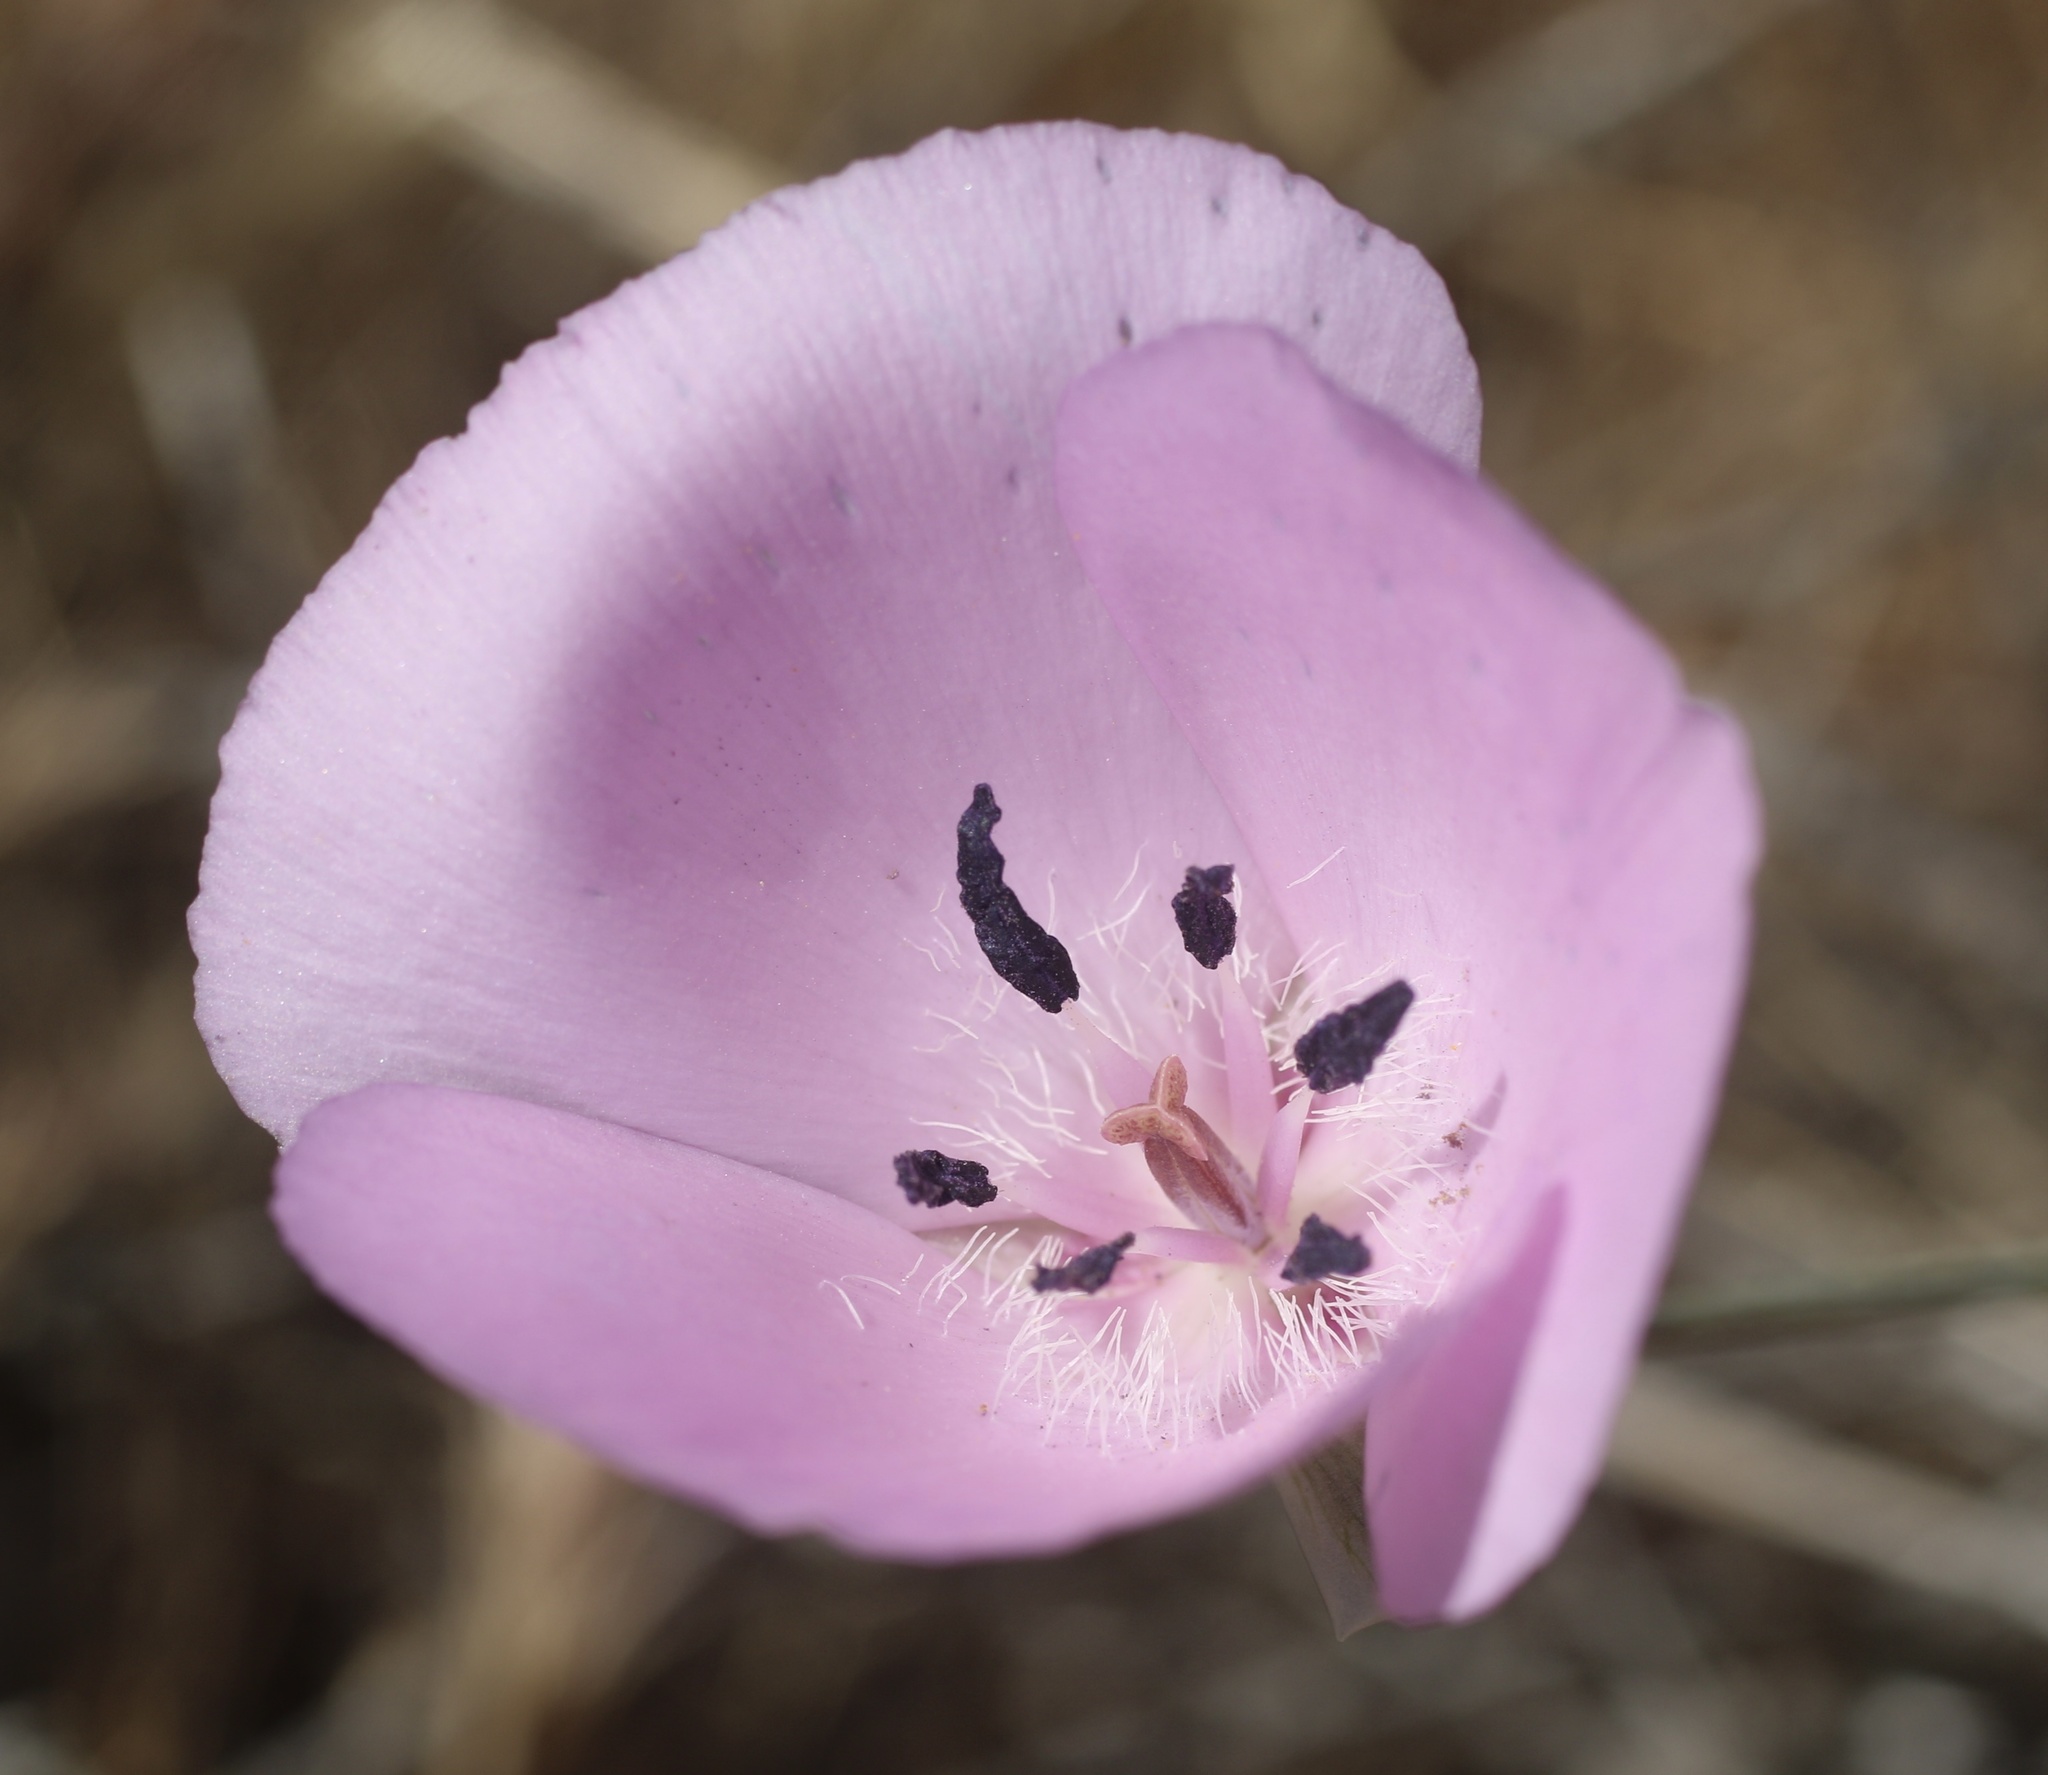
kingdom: Plantae
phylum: Tracheophyta
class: Liliopsida
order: Liliales
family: Liliaceae
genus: Calochortus
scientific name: Calochortus splendens
